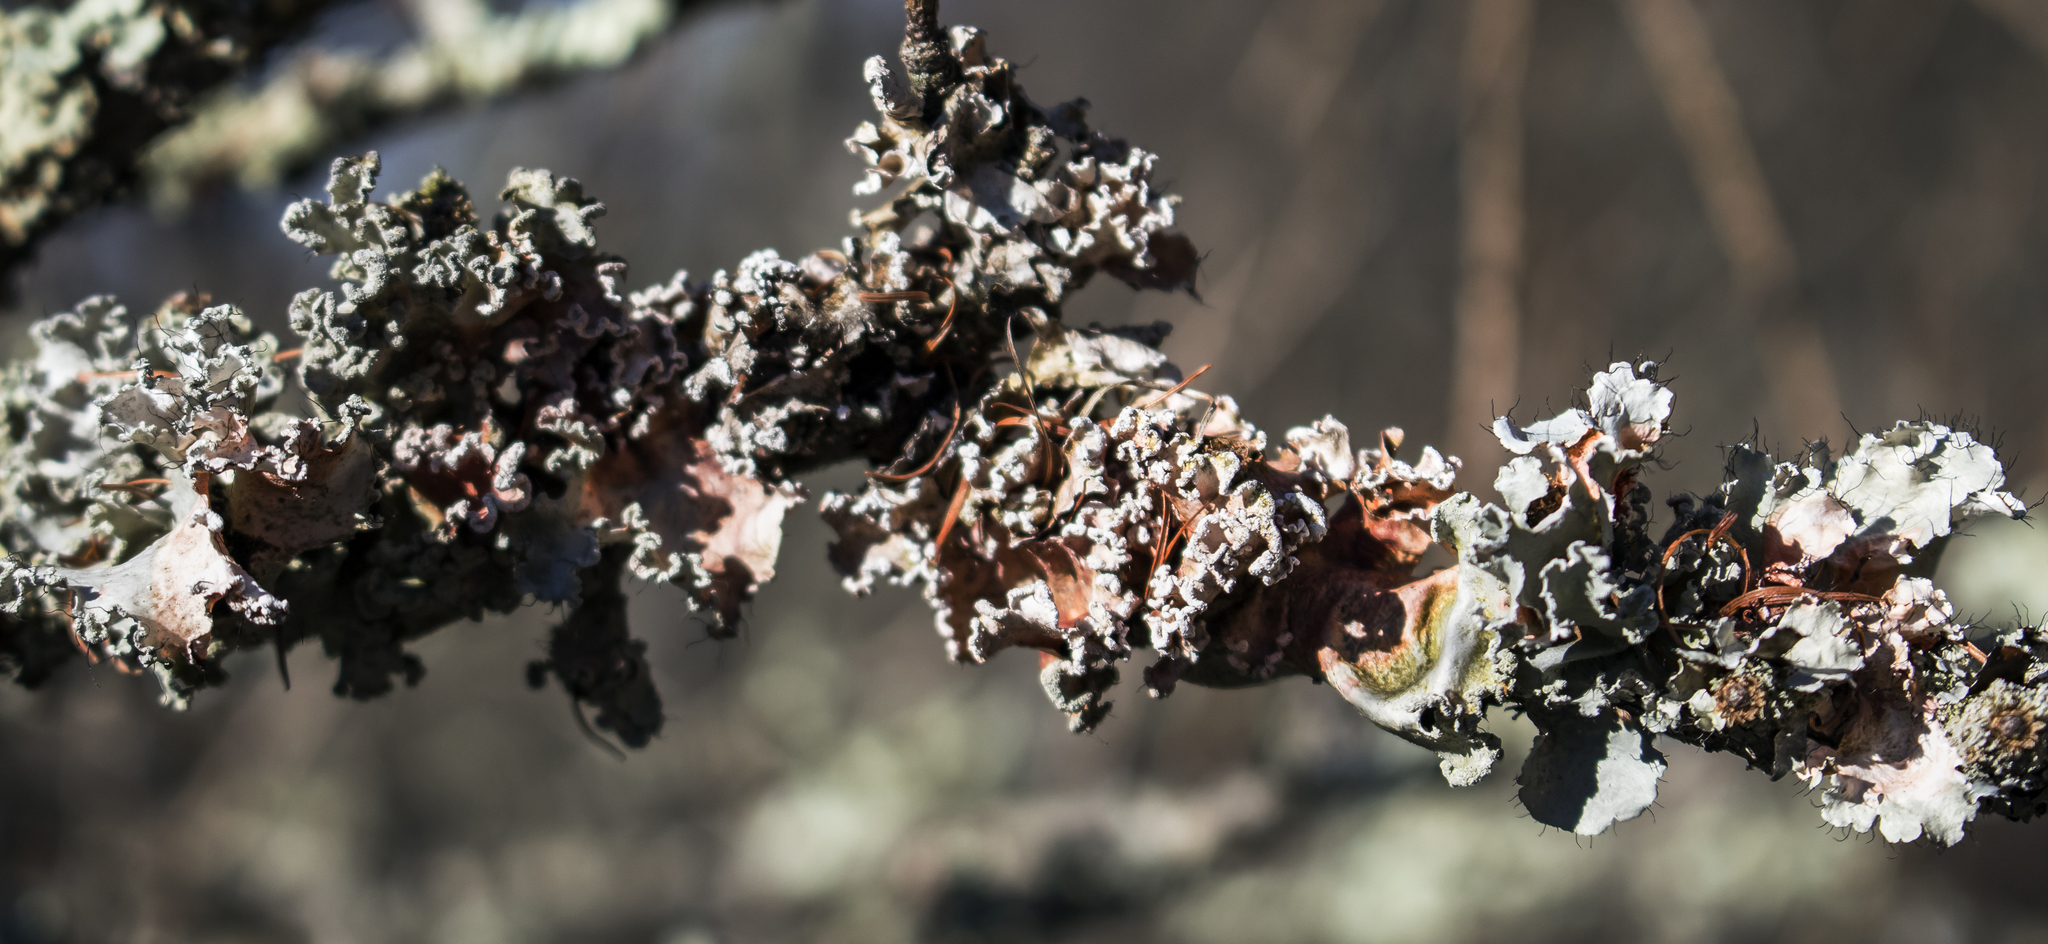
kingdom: Fungi
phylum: Ascomycota
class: Lecanoromycetes
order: Lecanorales
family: Parmeliaceae
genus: Parmotrema
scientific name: Parmotrema hypotropum
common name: Powdered ruffle lichen
